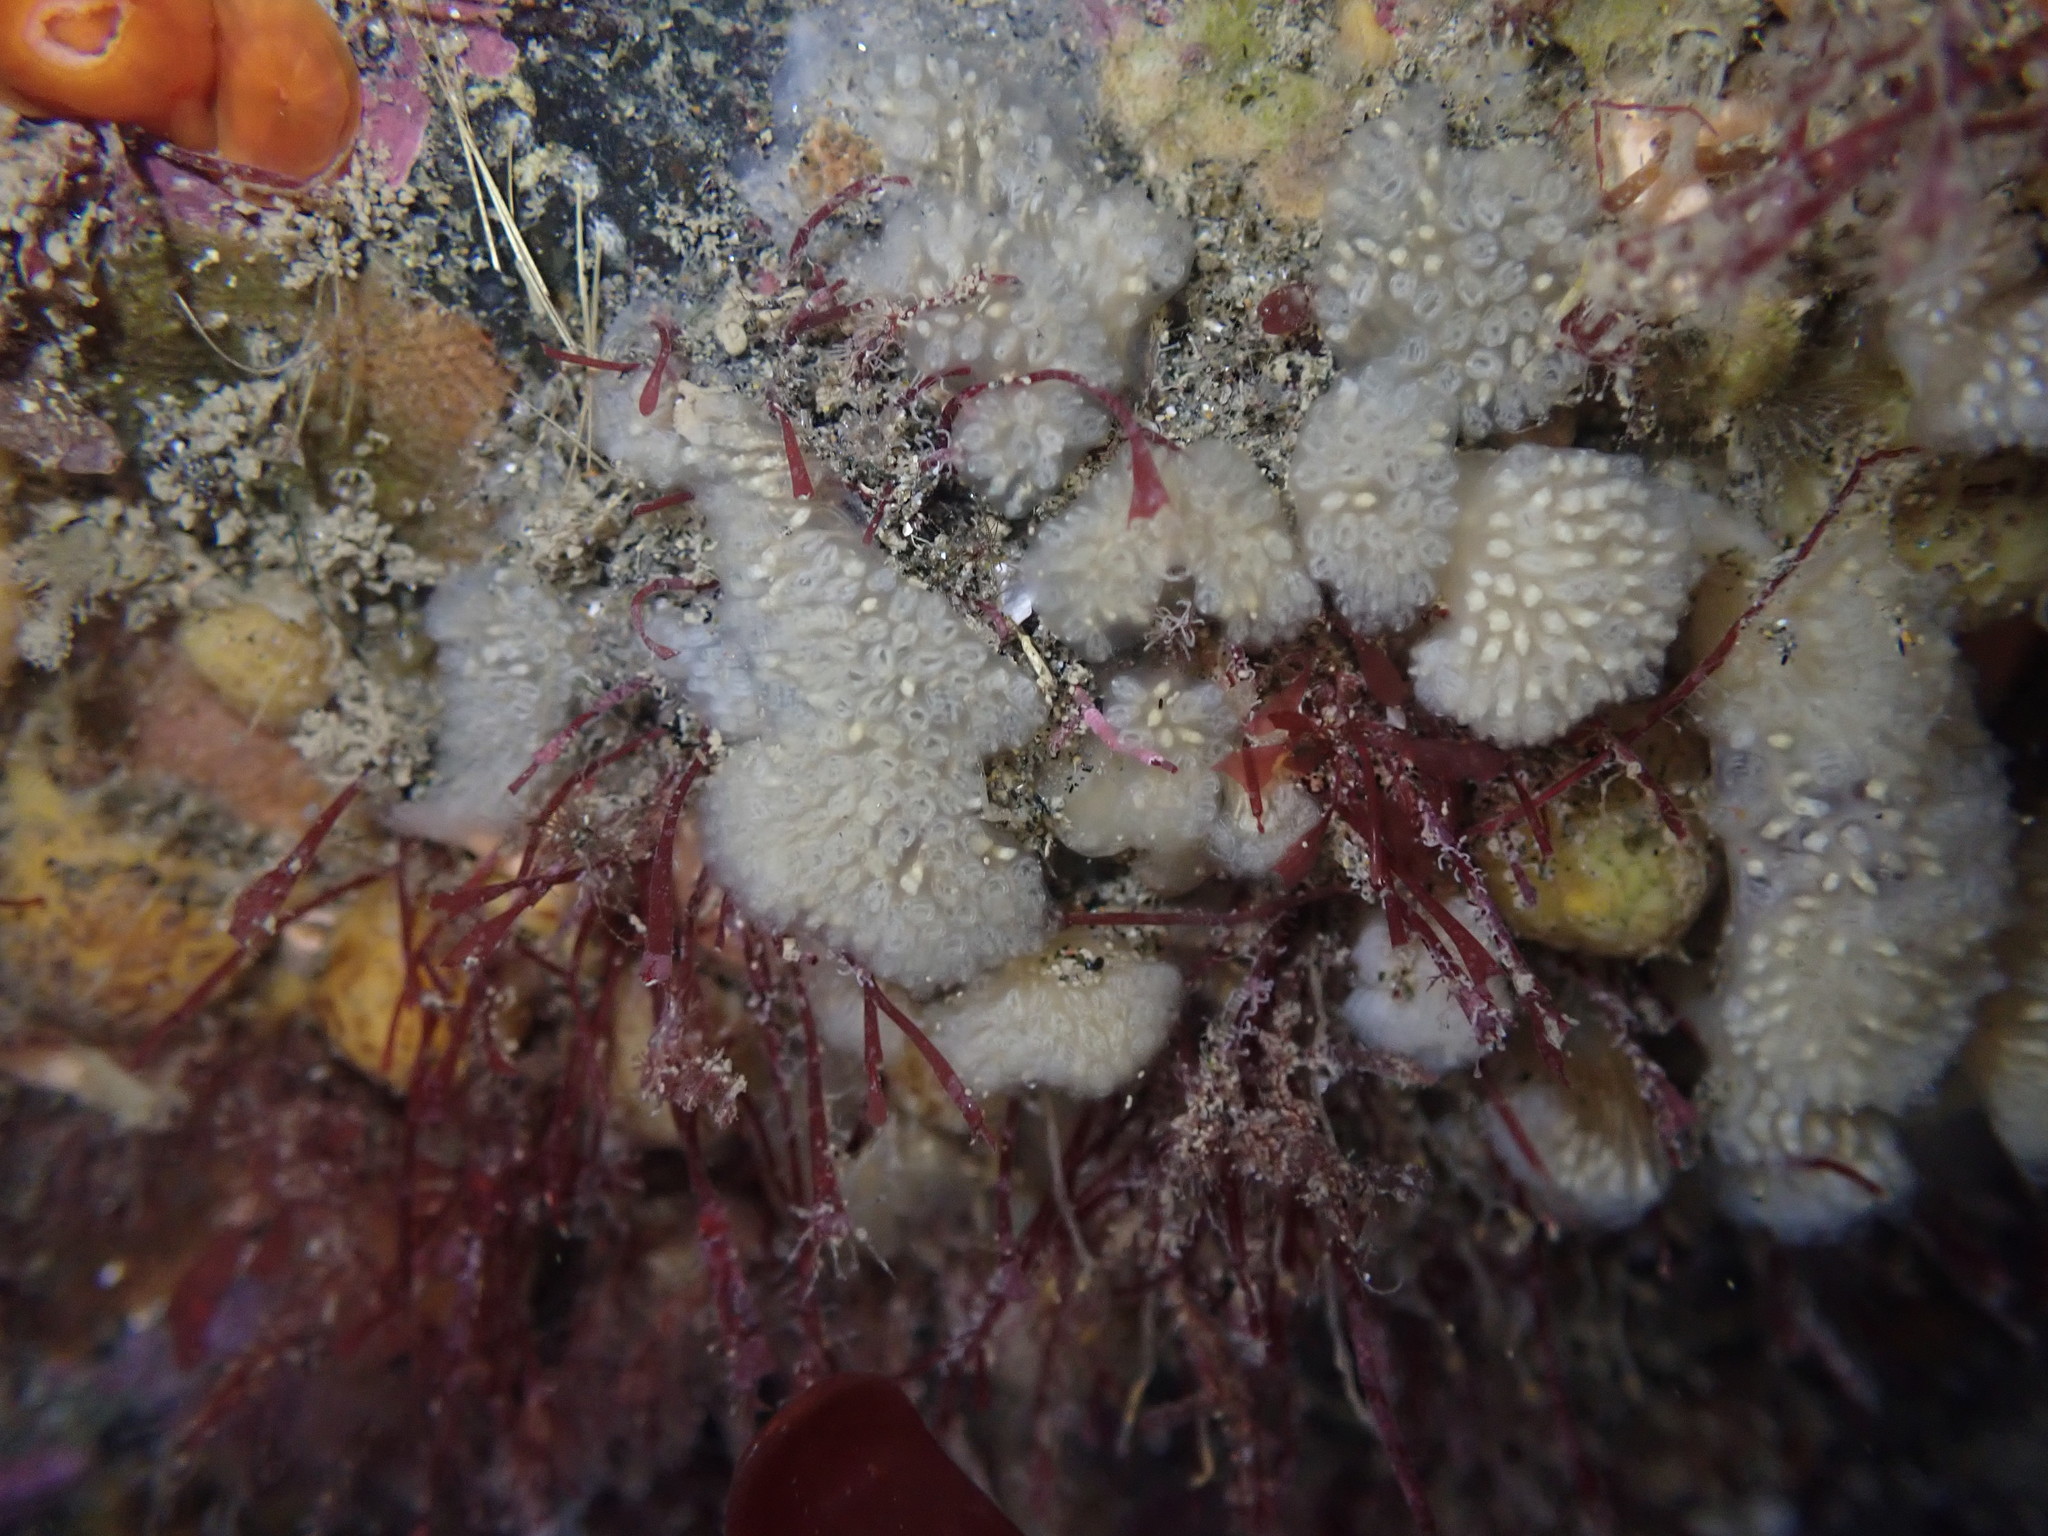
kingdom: Animalia
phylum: Chordata
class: Ascidiacea
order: Aplousobranchia
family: Pseudodistomidae
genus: Pseudodistoma
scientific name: Pseudodistoma opacum
